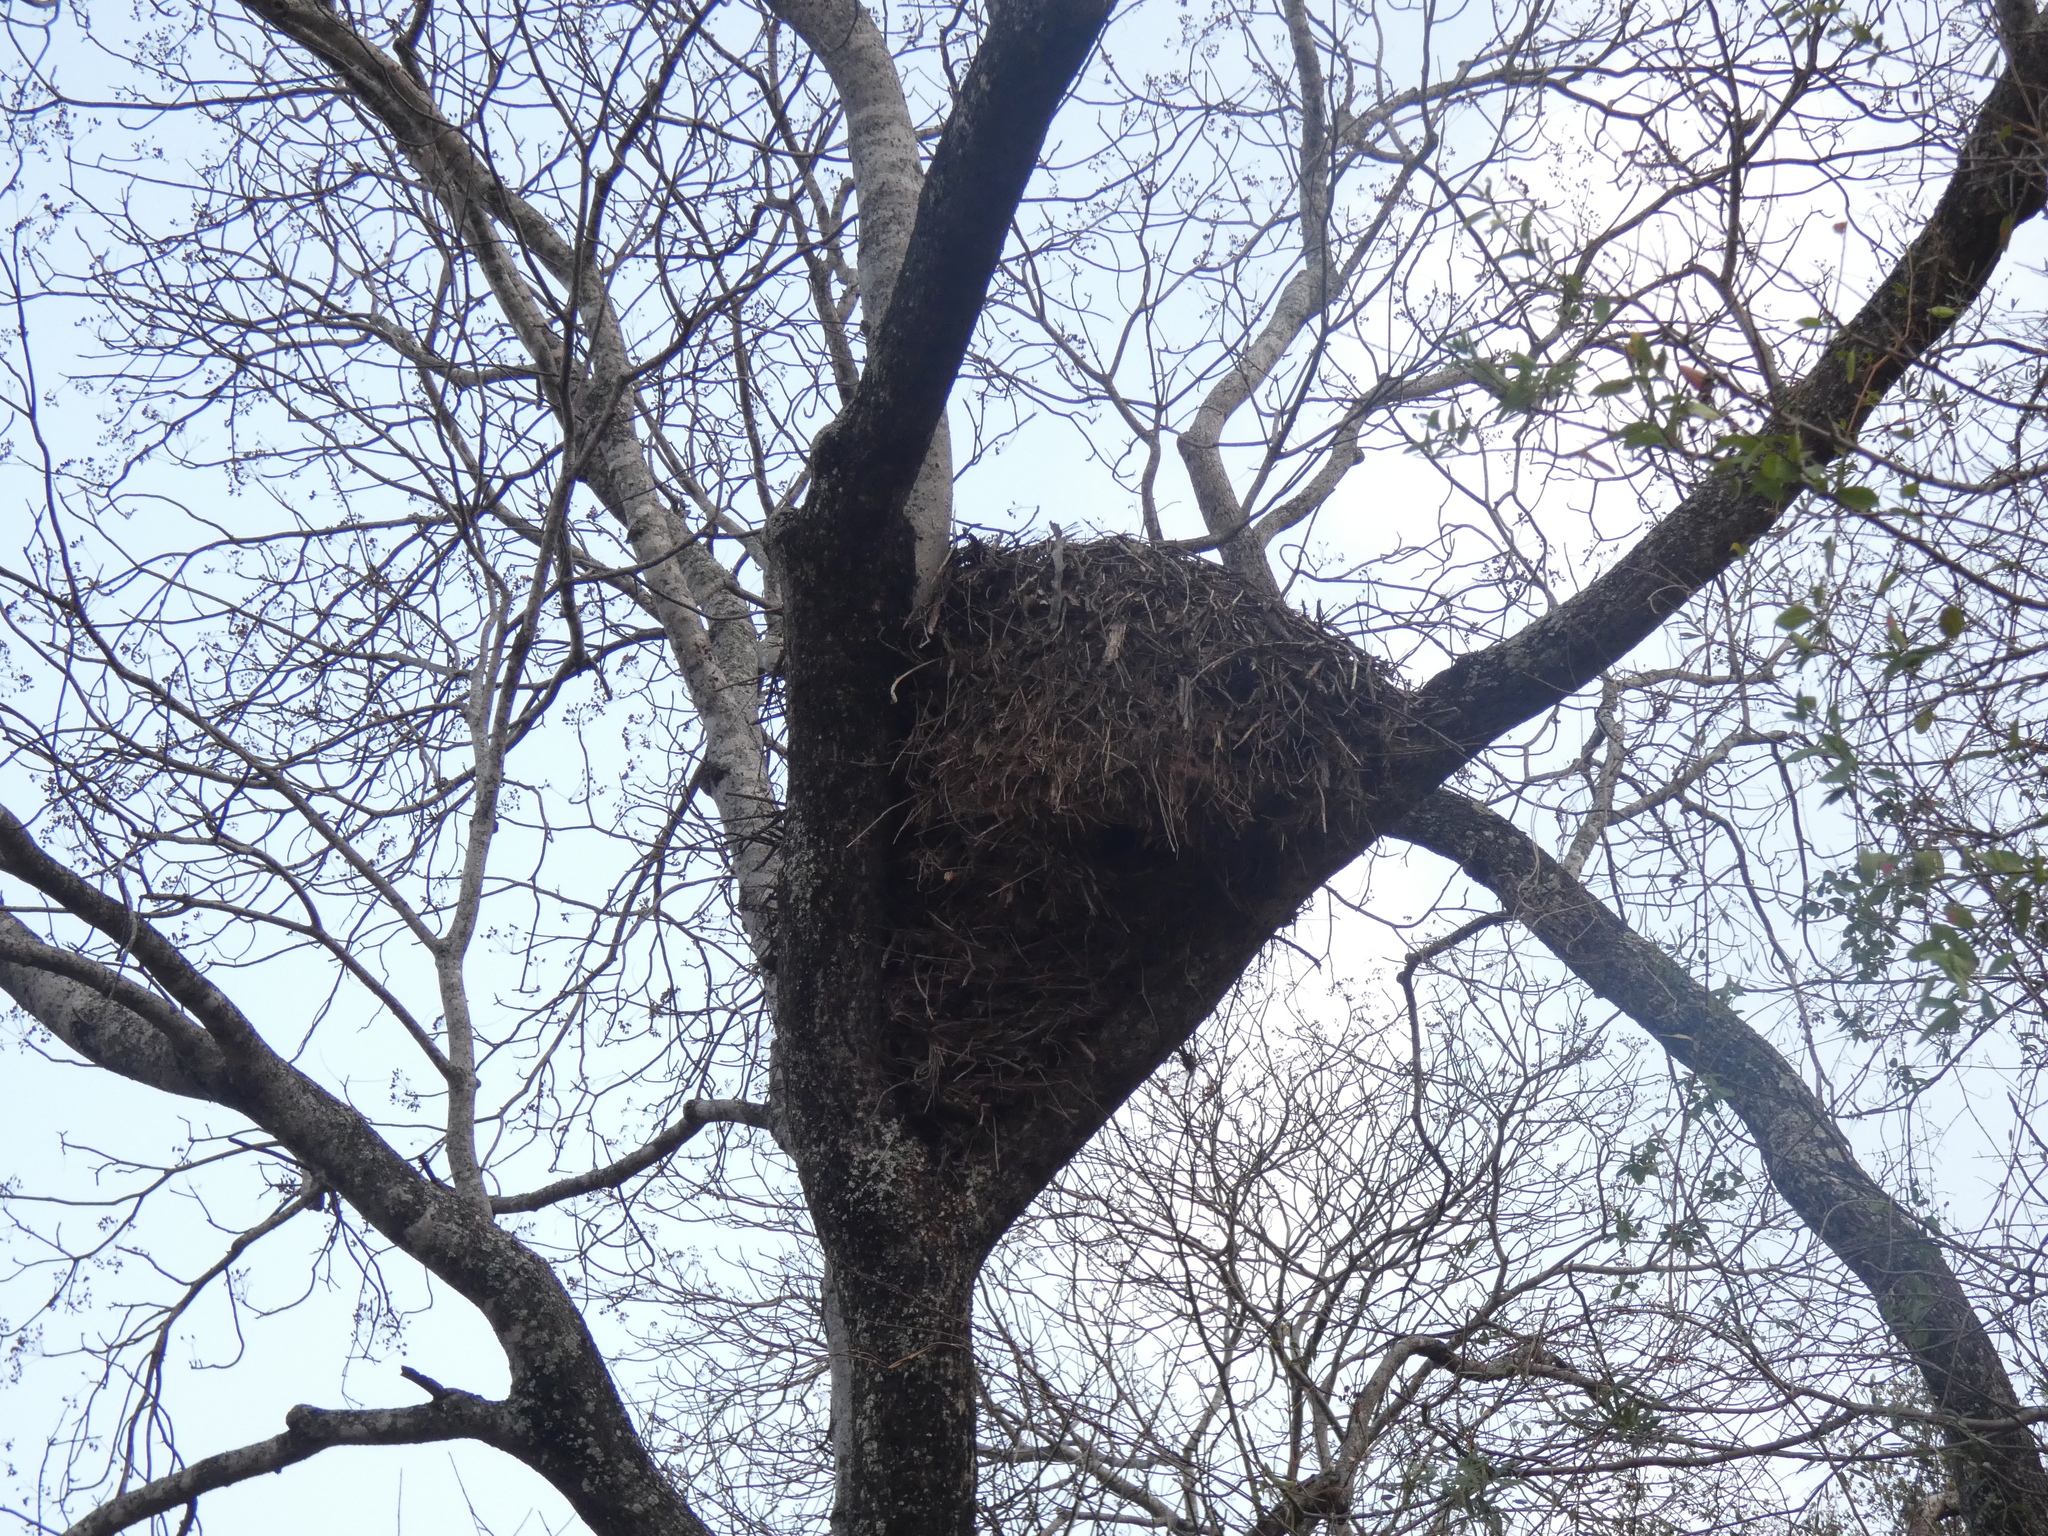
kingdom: Animalia
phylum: Chordata
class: Aves
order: Pelecaniformes
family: Scopidae
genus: Scopus
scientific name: Scopus umbretta
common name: Hamerkop
